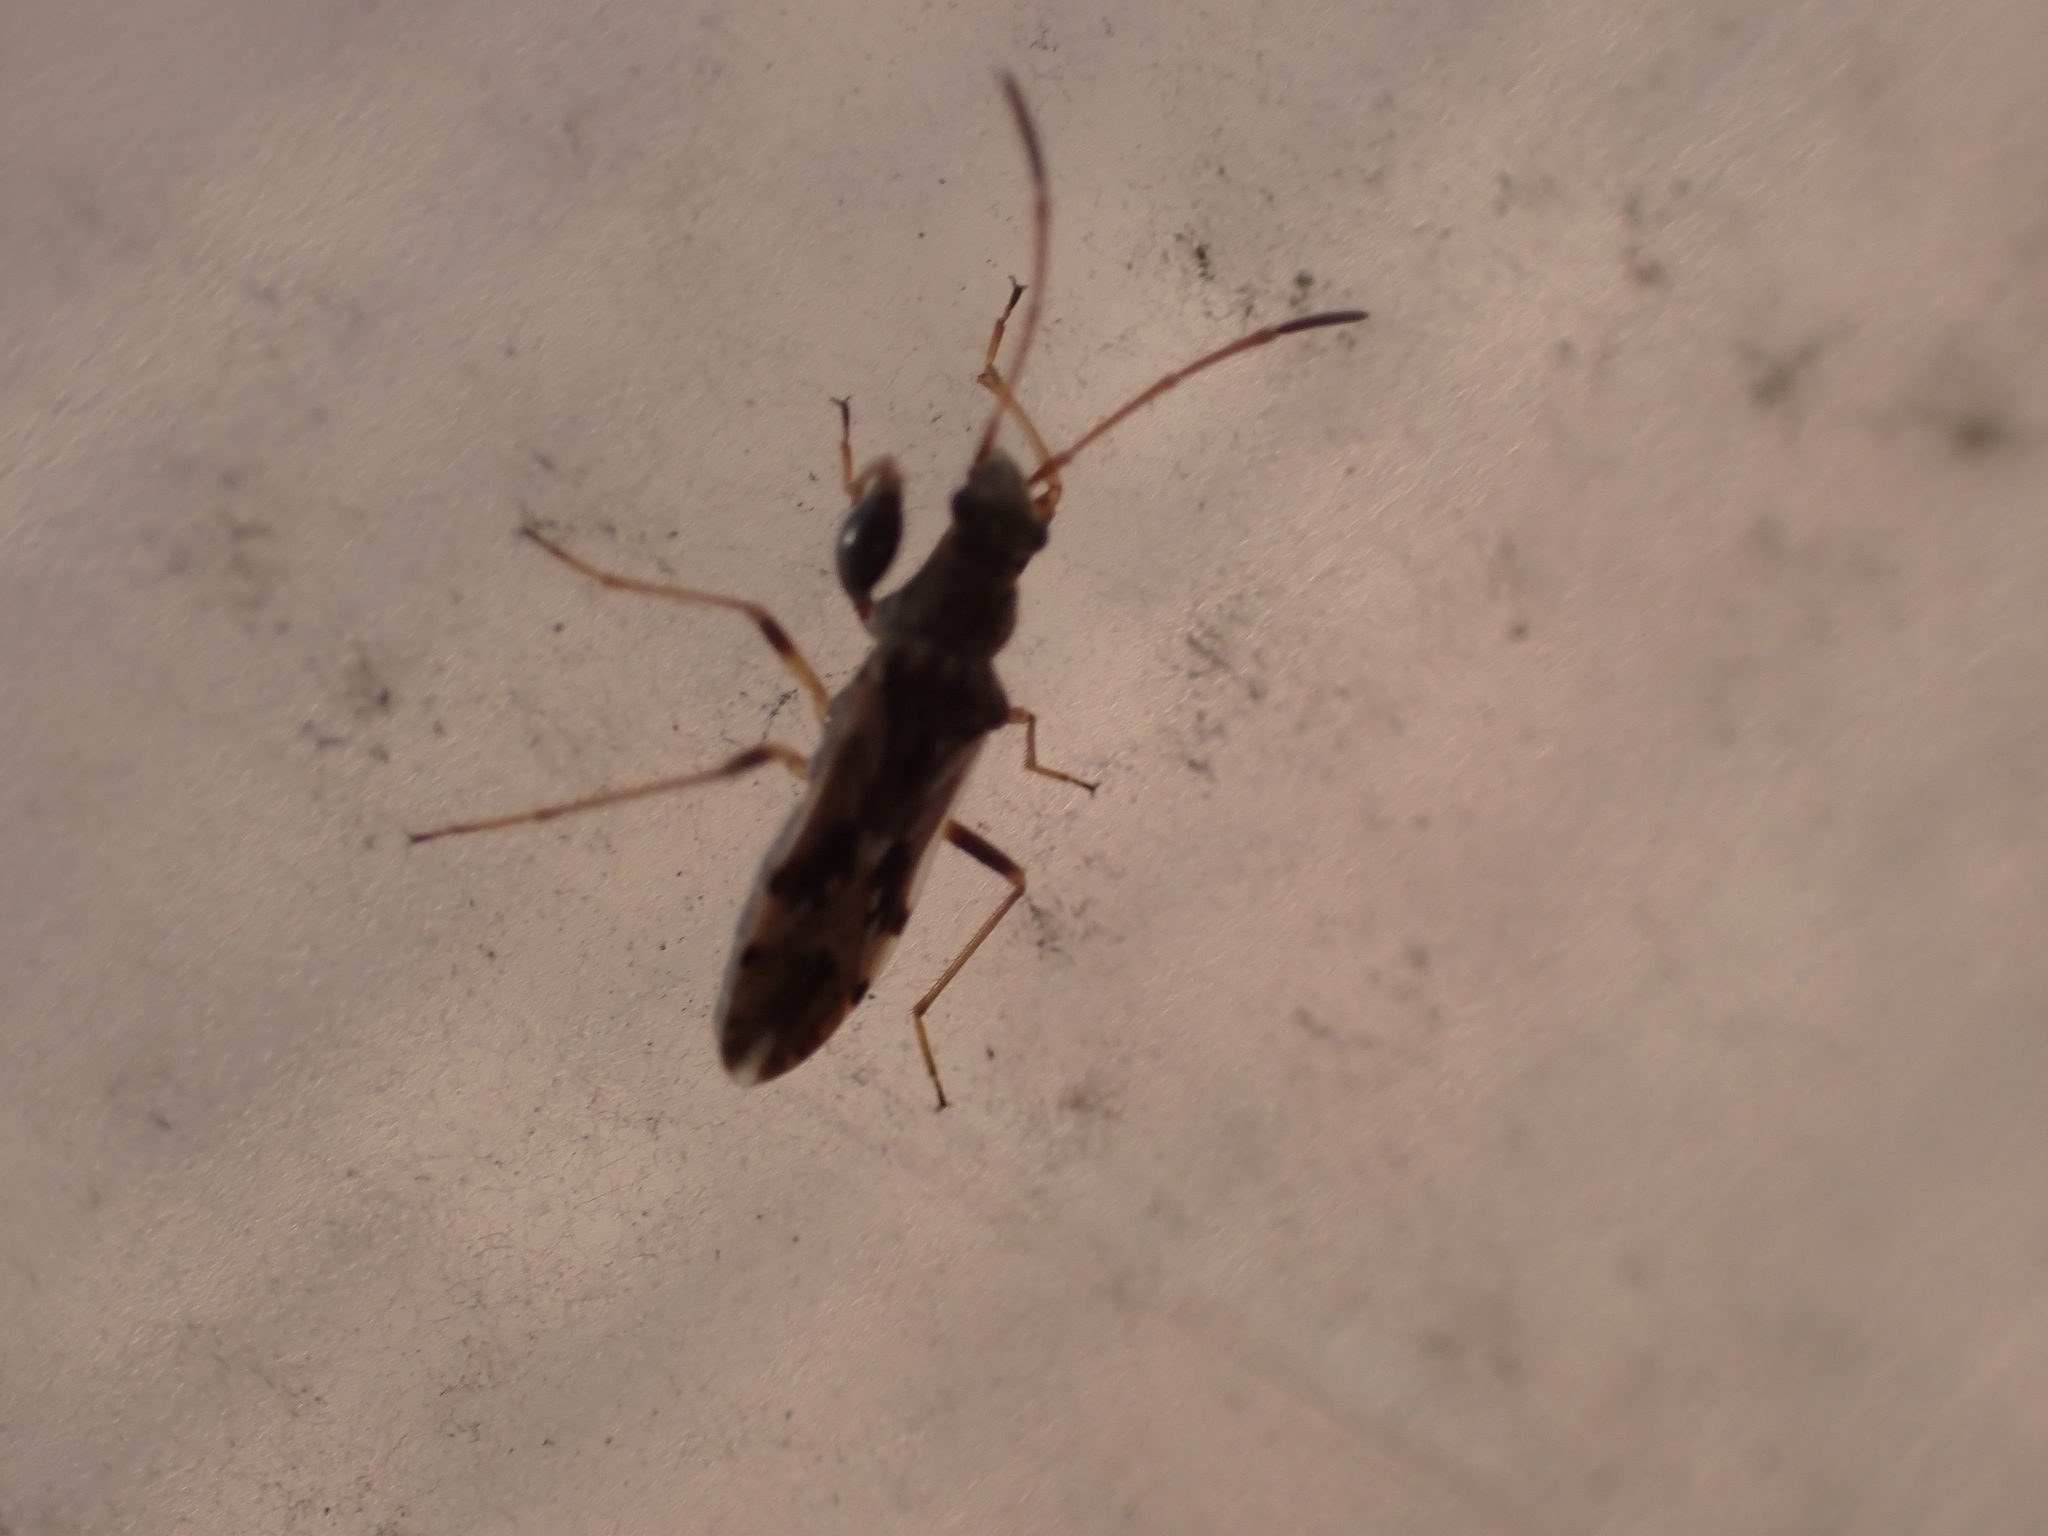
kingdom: Animalia
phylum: Arthropoda
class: Insecta
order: Hemiptera
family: Rhyparochromidae
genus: Neopamera
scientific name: Neopamera bilobata
